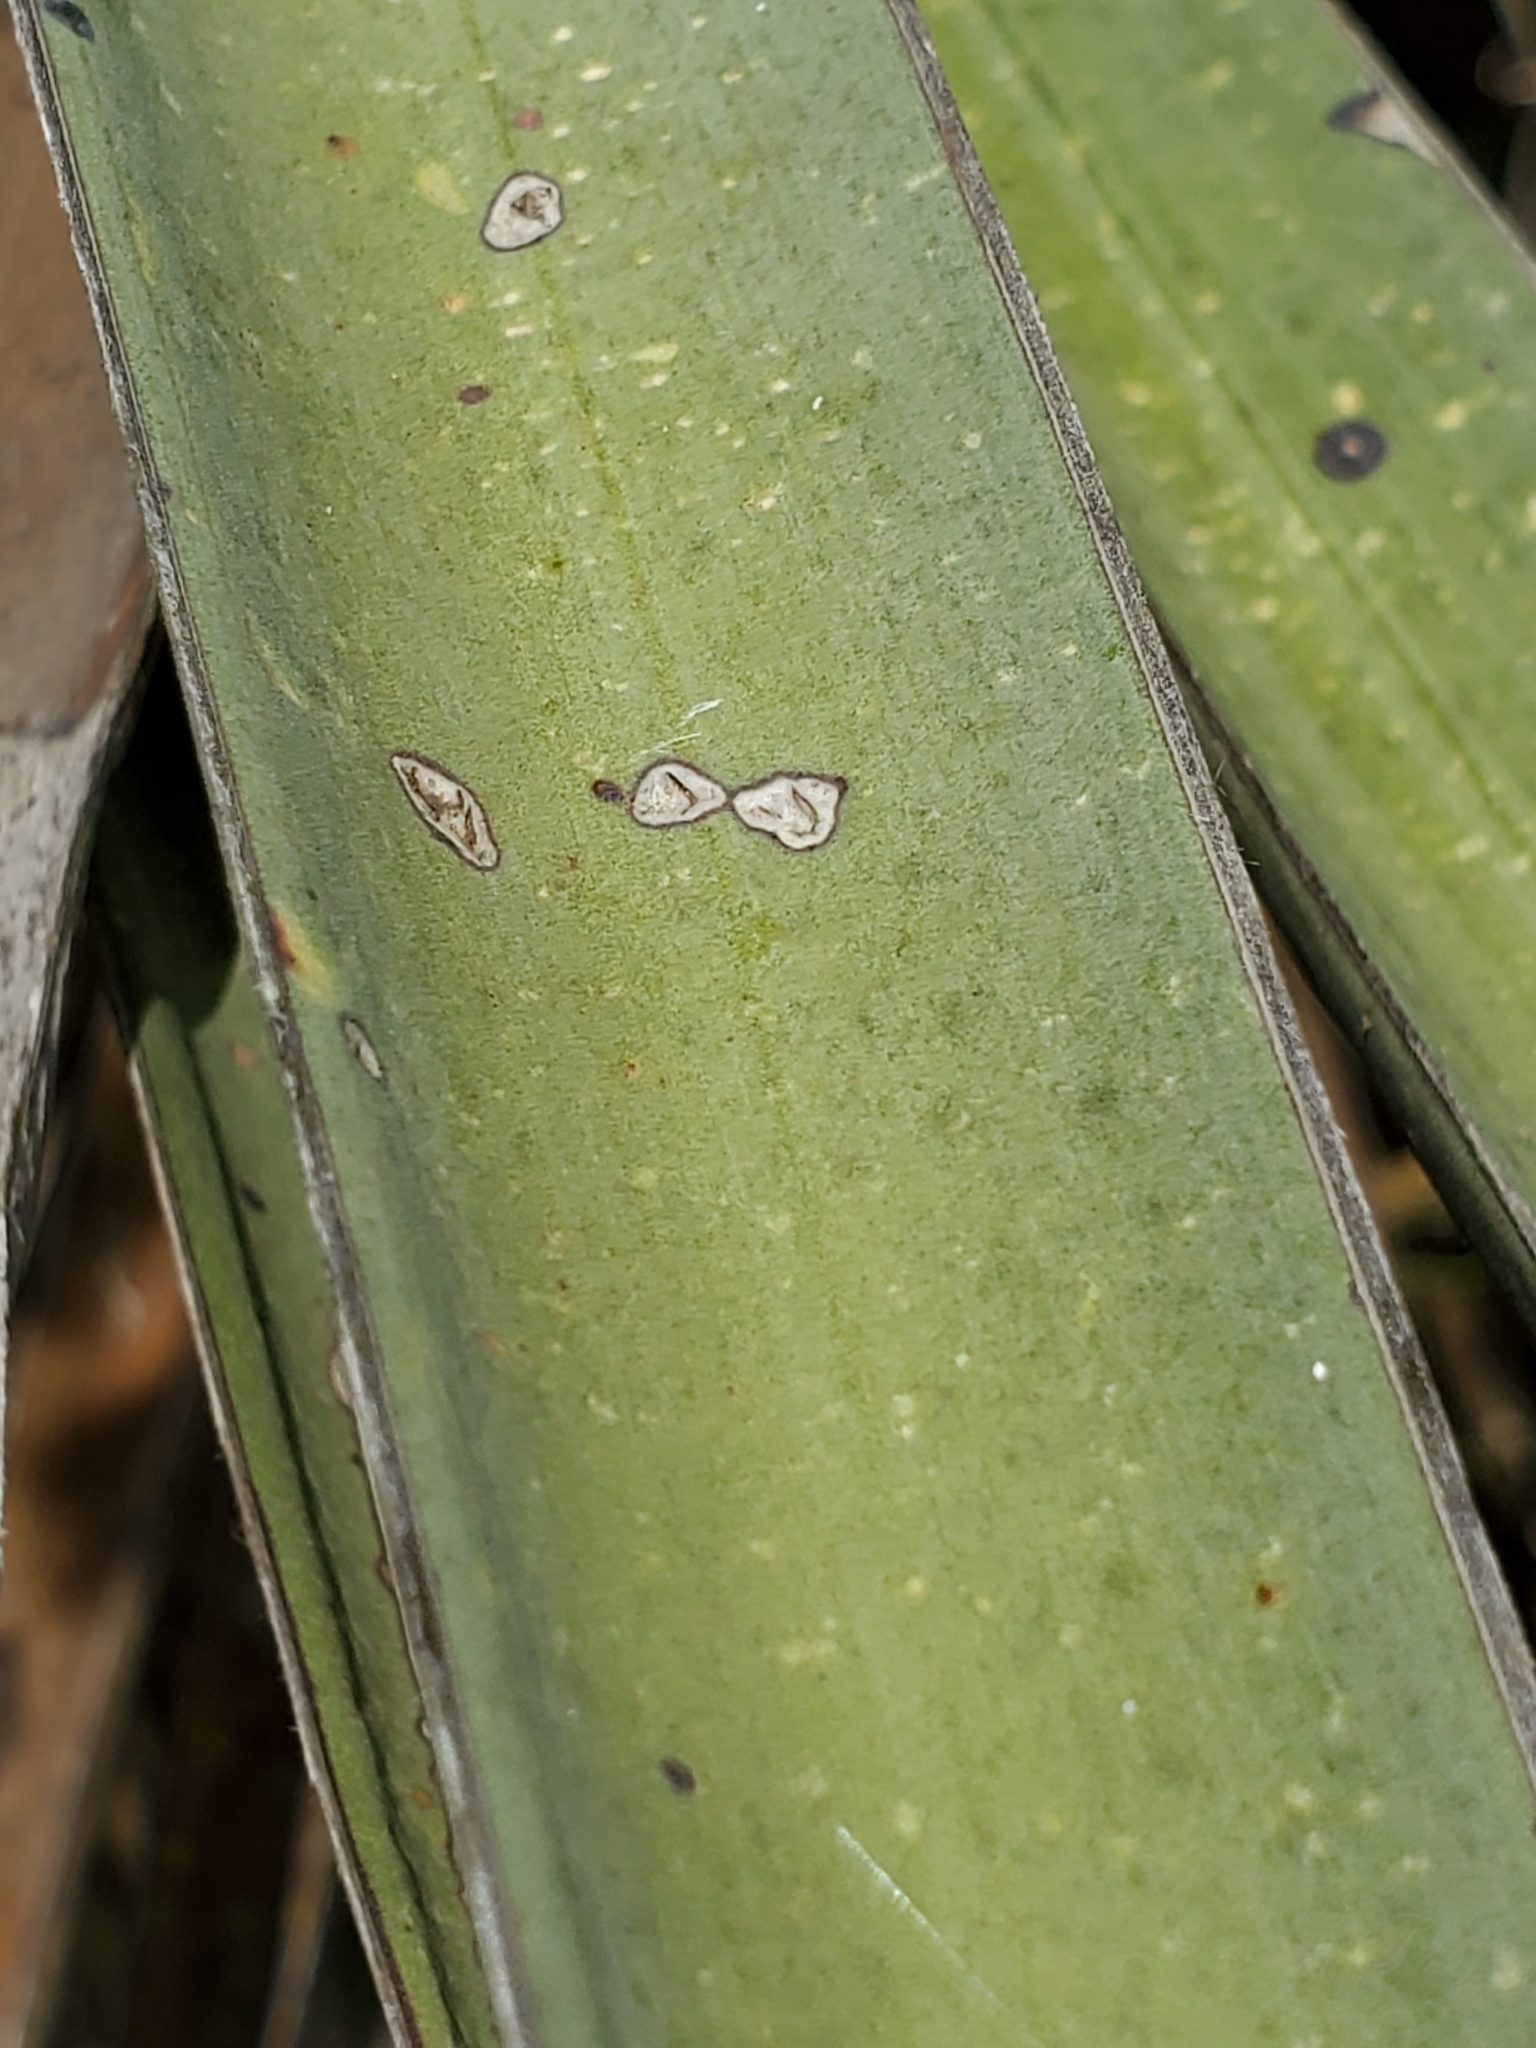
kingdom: Plantae
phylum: Tracheophyta
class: Liliopsida
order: Asparagales
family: Asparagaceae
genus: Yucca
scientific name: Yucca treculiana
